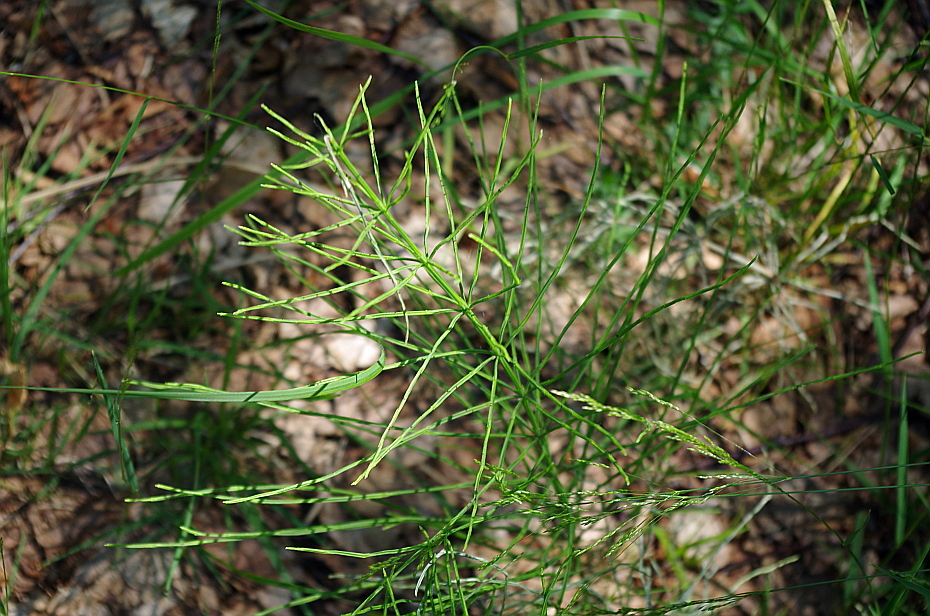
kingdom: Plantae
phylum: Tracheophyta
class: Polypodiopsida
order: Equisetales
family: Equisetaceae
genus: Equisetum
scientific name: Equisetum arvense
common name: Field horsetail
